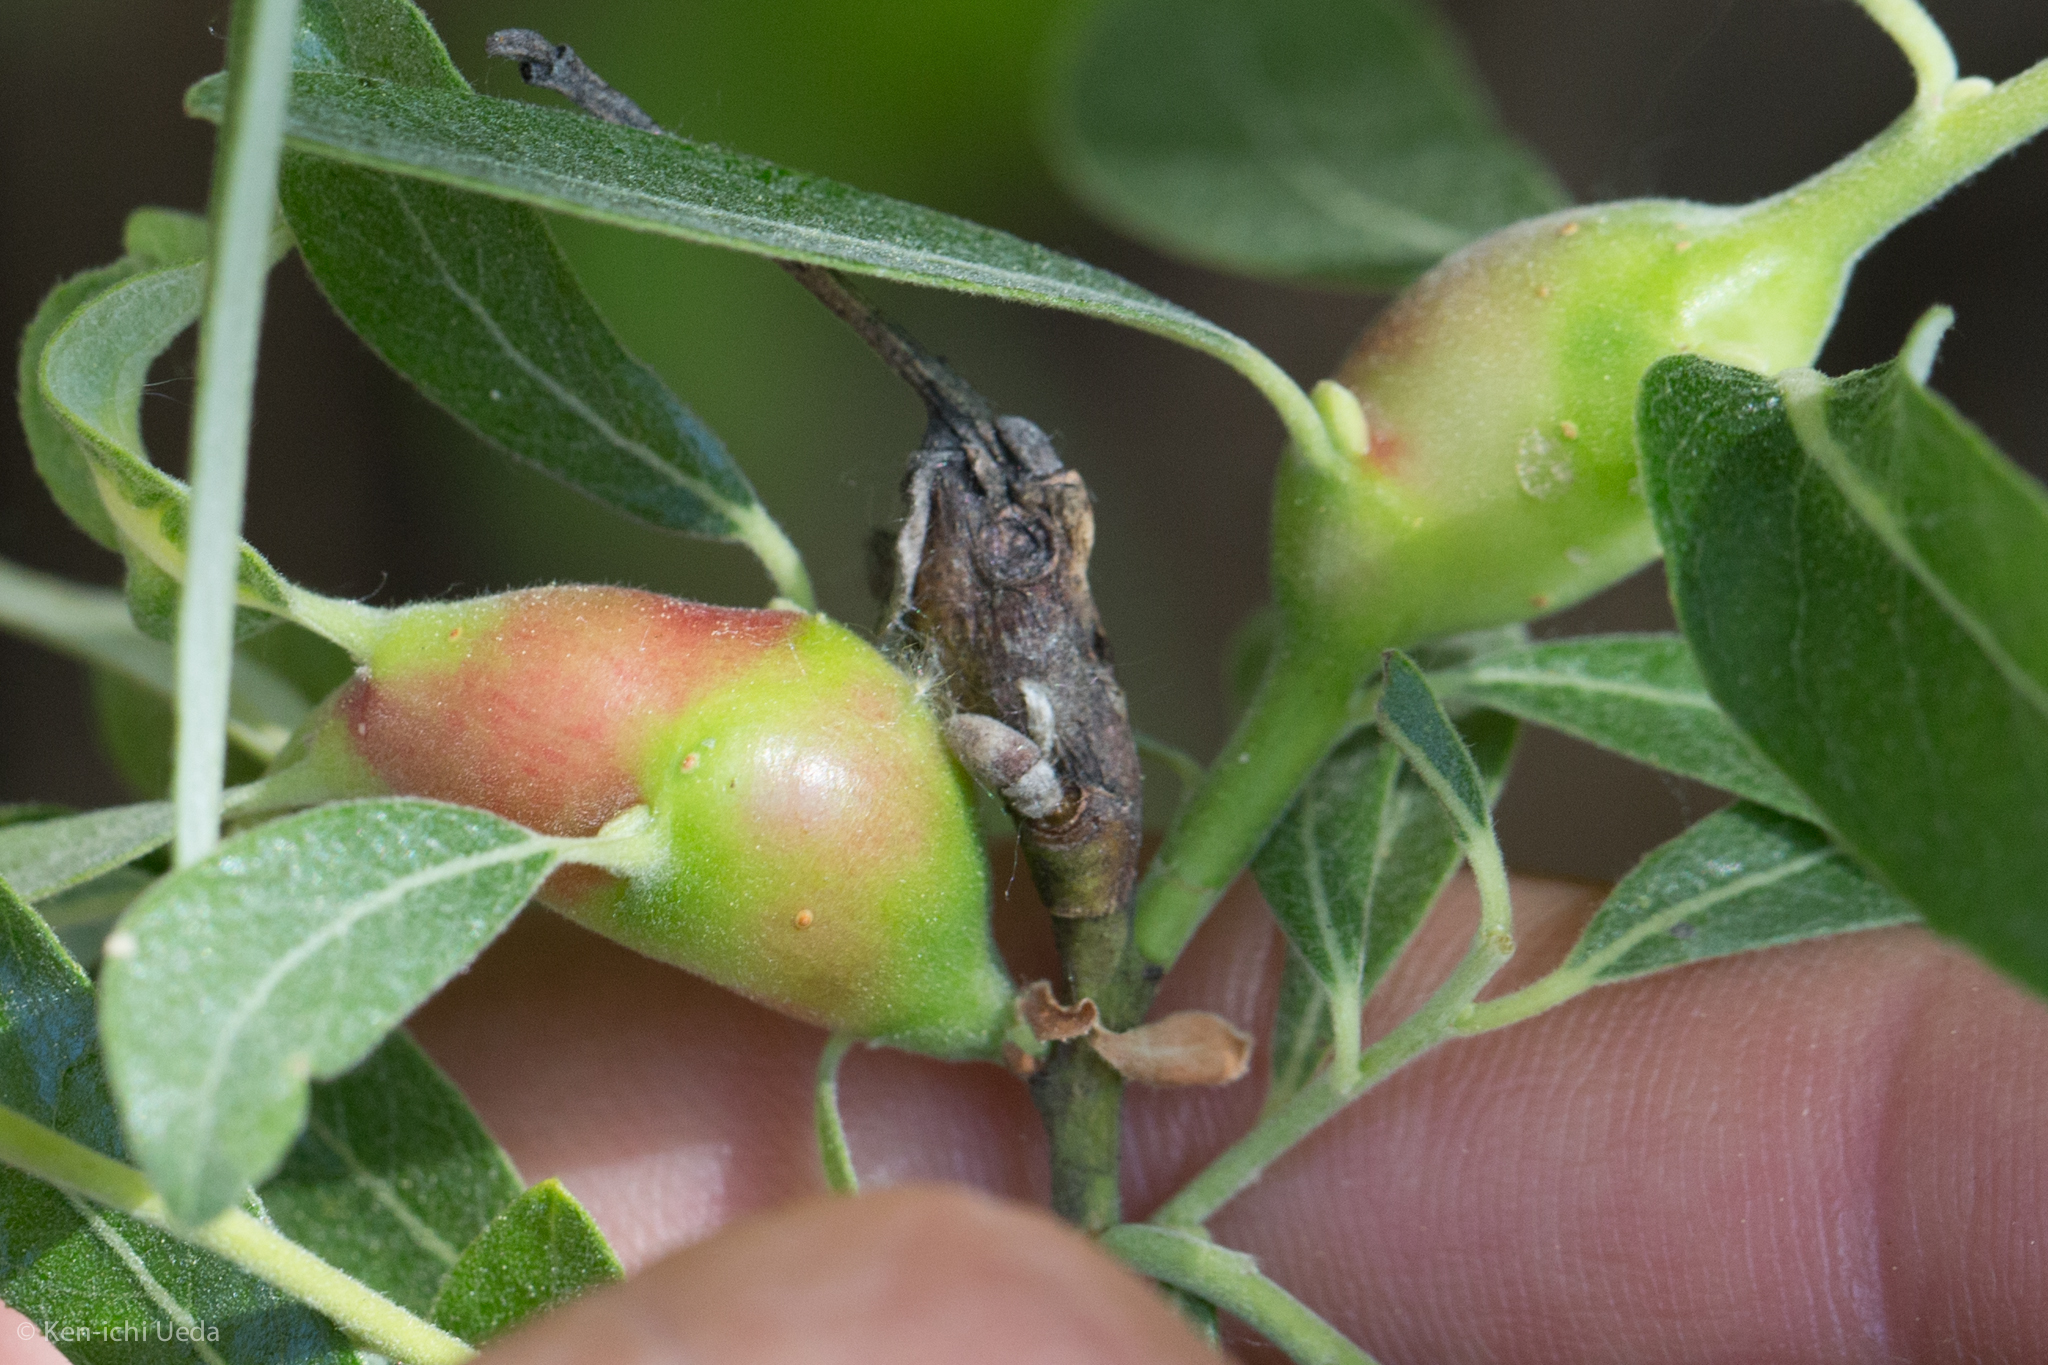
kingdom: Animalia
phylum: Arthropoda
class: Insecta
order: Diptera
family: Cecidomyiidae
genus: Rabdophaga
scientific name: Rabdophaga salicisbatatas
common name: Potato gall midge
